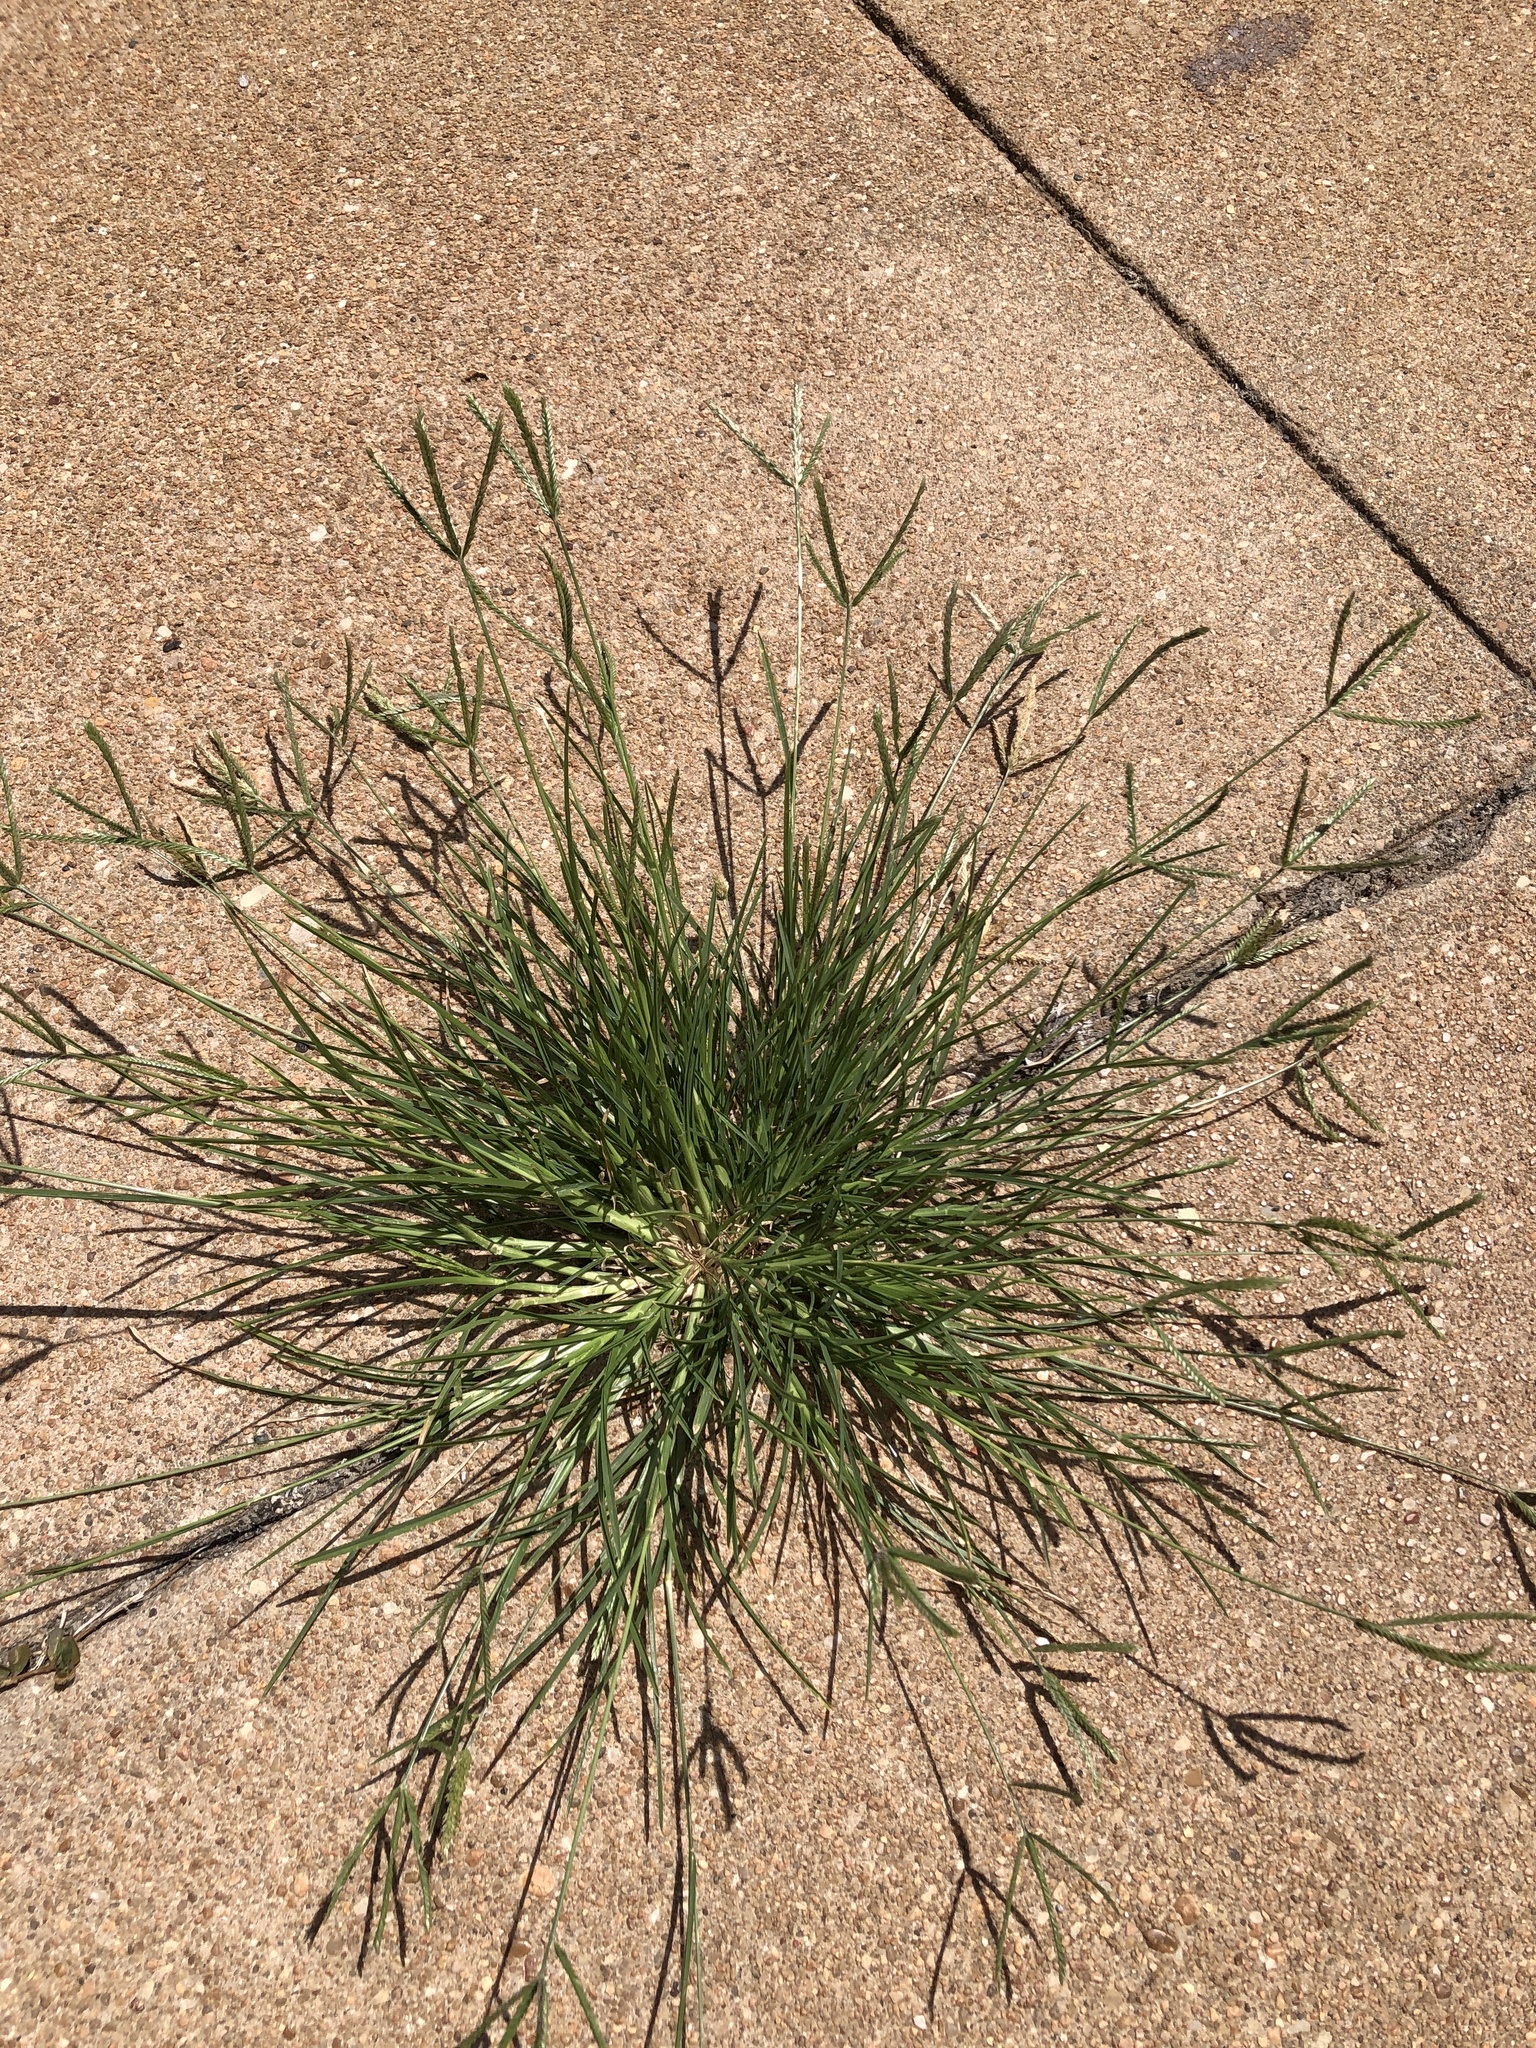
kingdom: Plantae
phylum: Tracheophyta
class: Liliopsida
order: Poales
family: Poaceae
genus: Eleusine
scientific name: Eleusine indica
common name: Yard-grass
